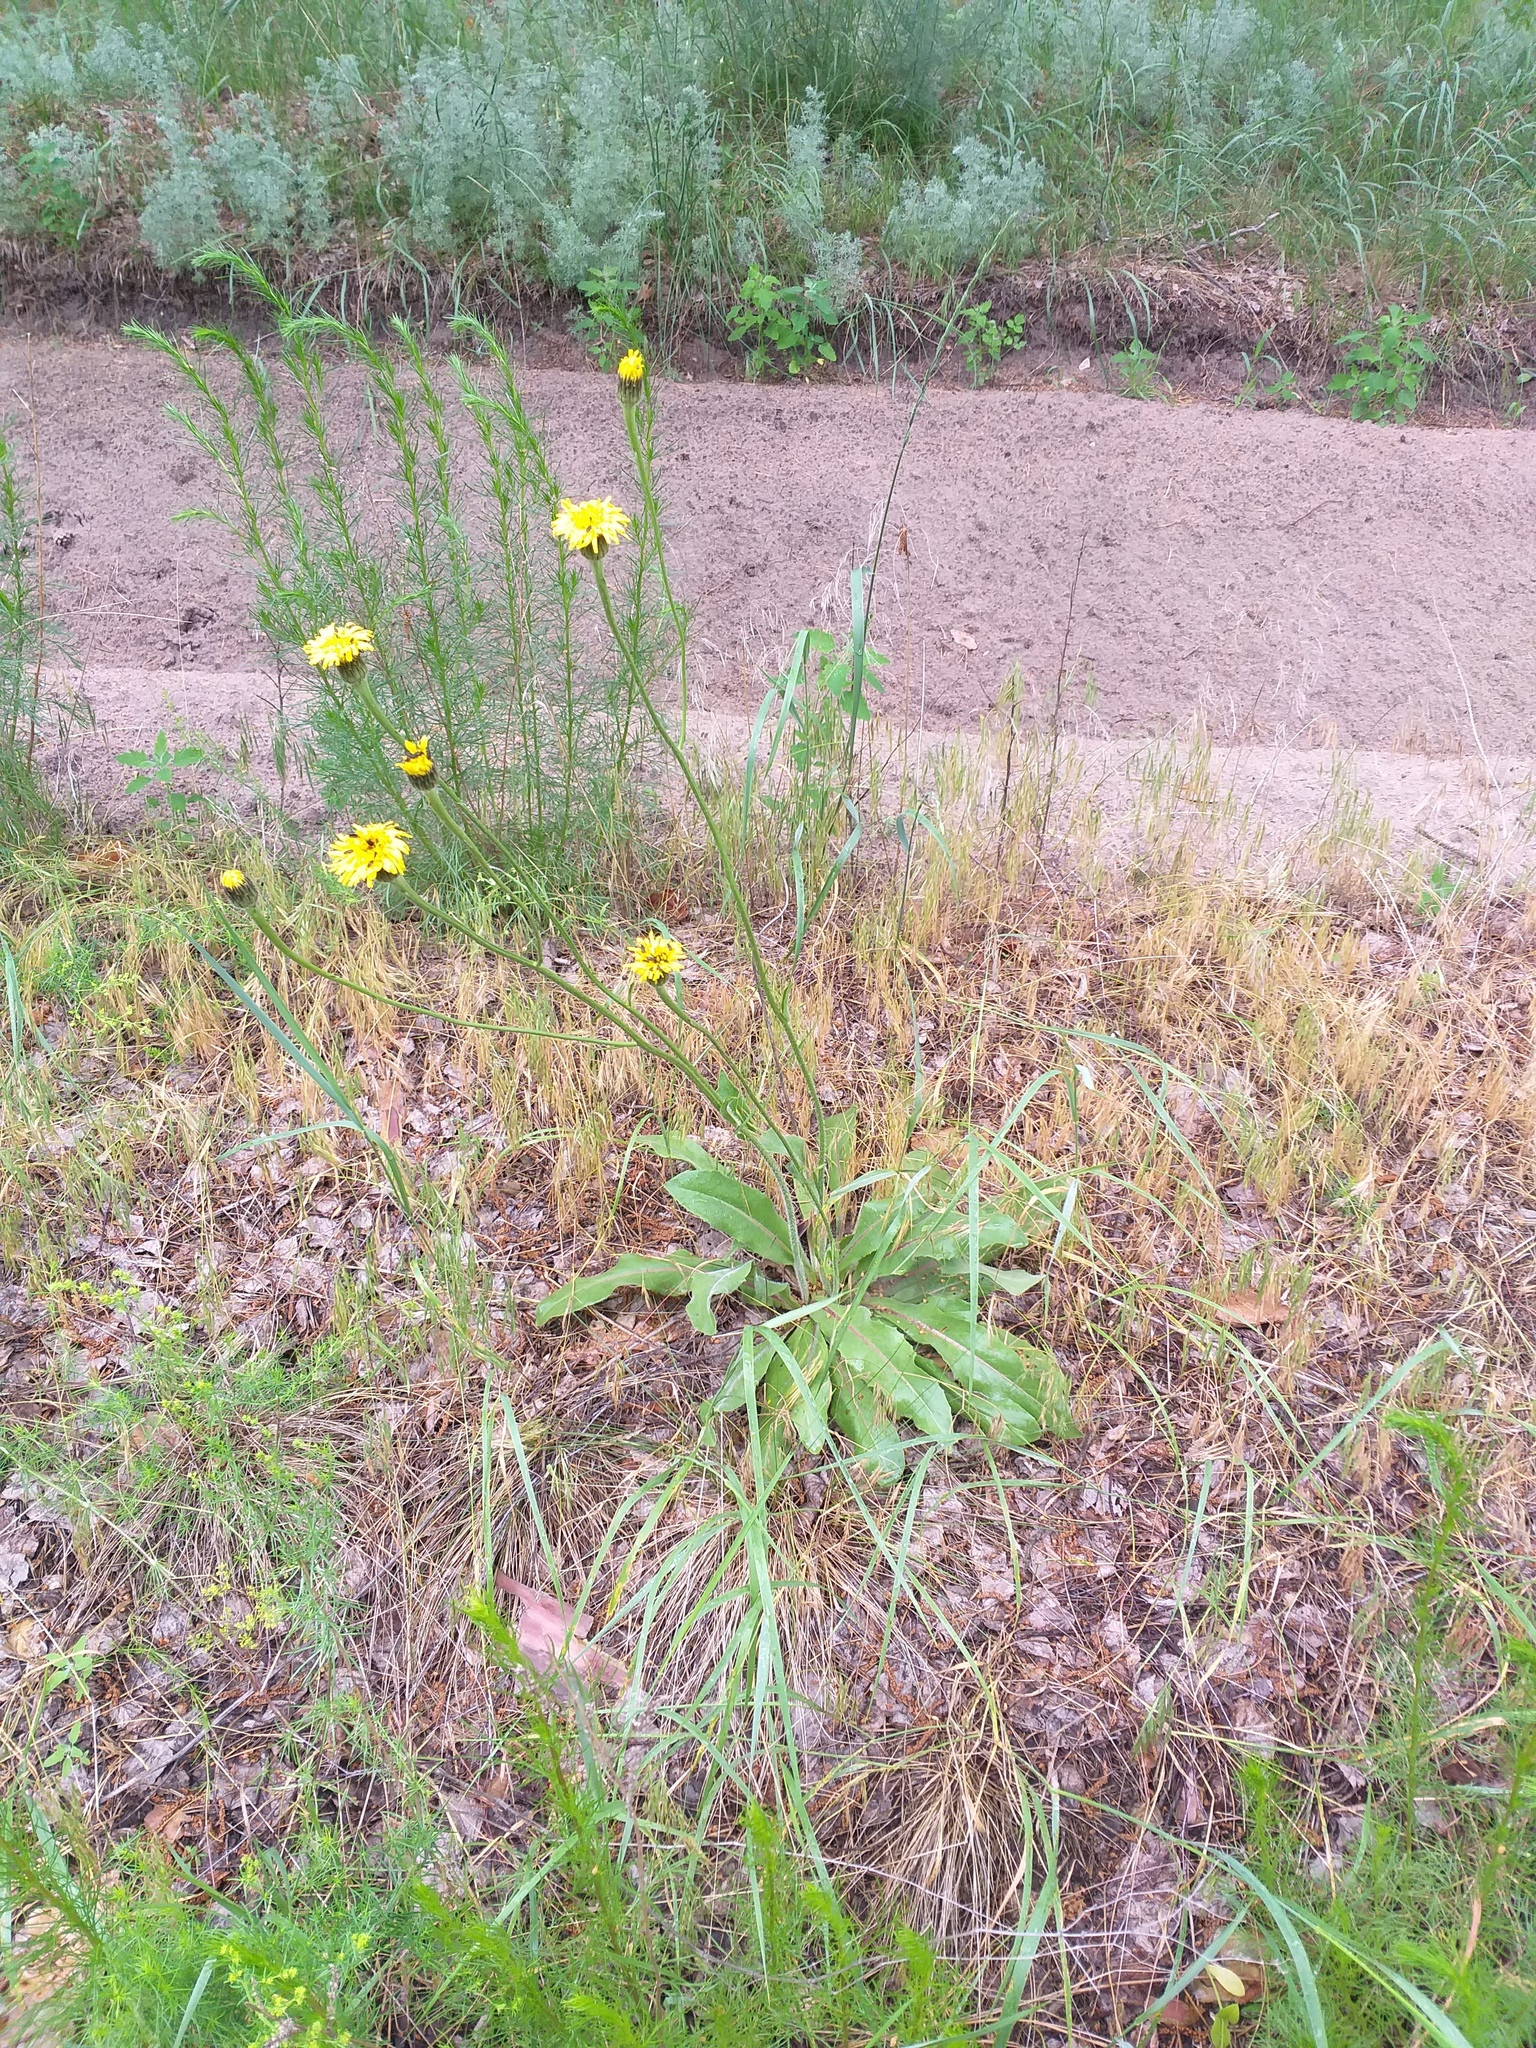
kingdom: Plantae
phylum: Tracheophyta
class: Magnoliopsida
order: Asterales
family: Asteraceae
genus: Trommsdorffia
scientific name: Trommsdorffia maculata
